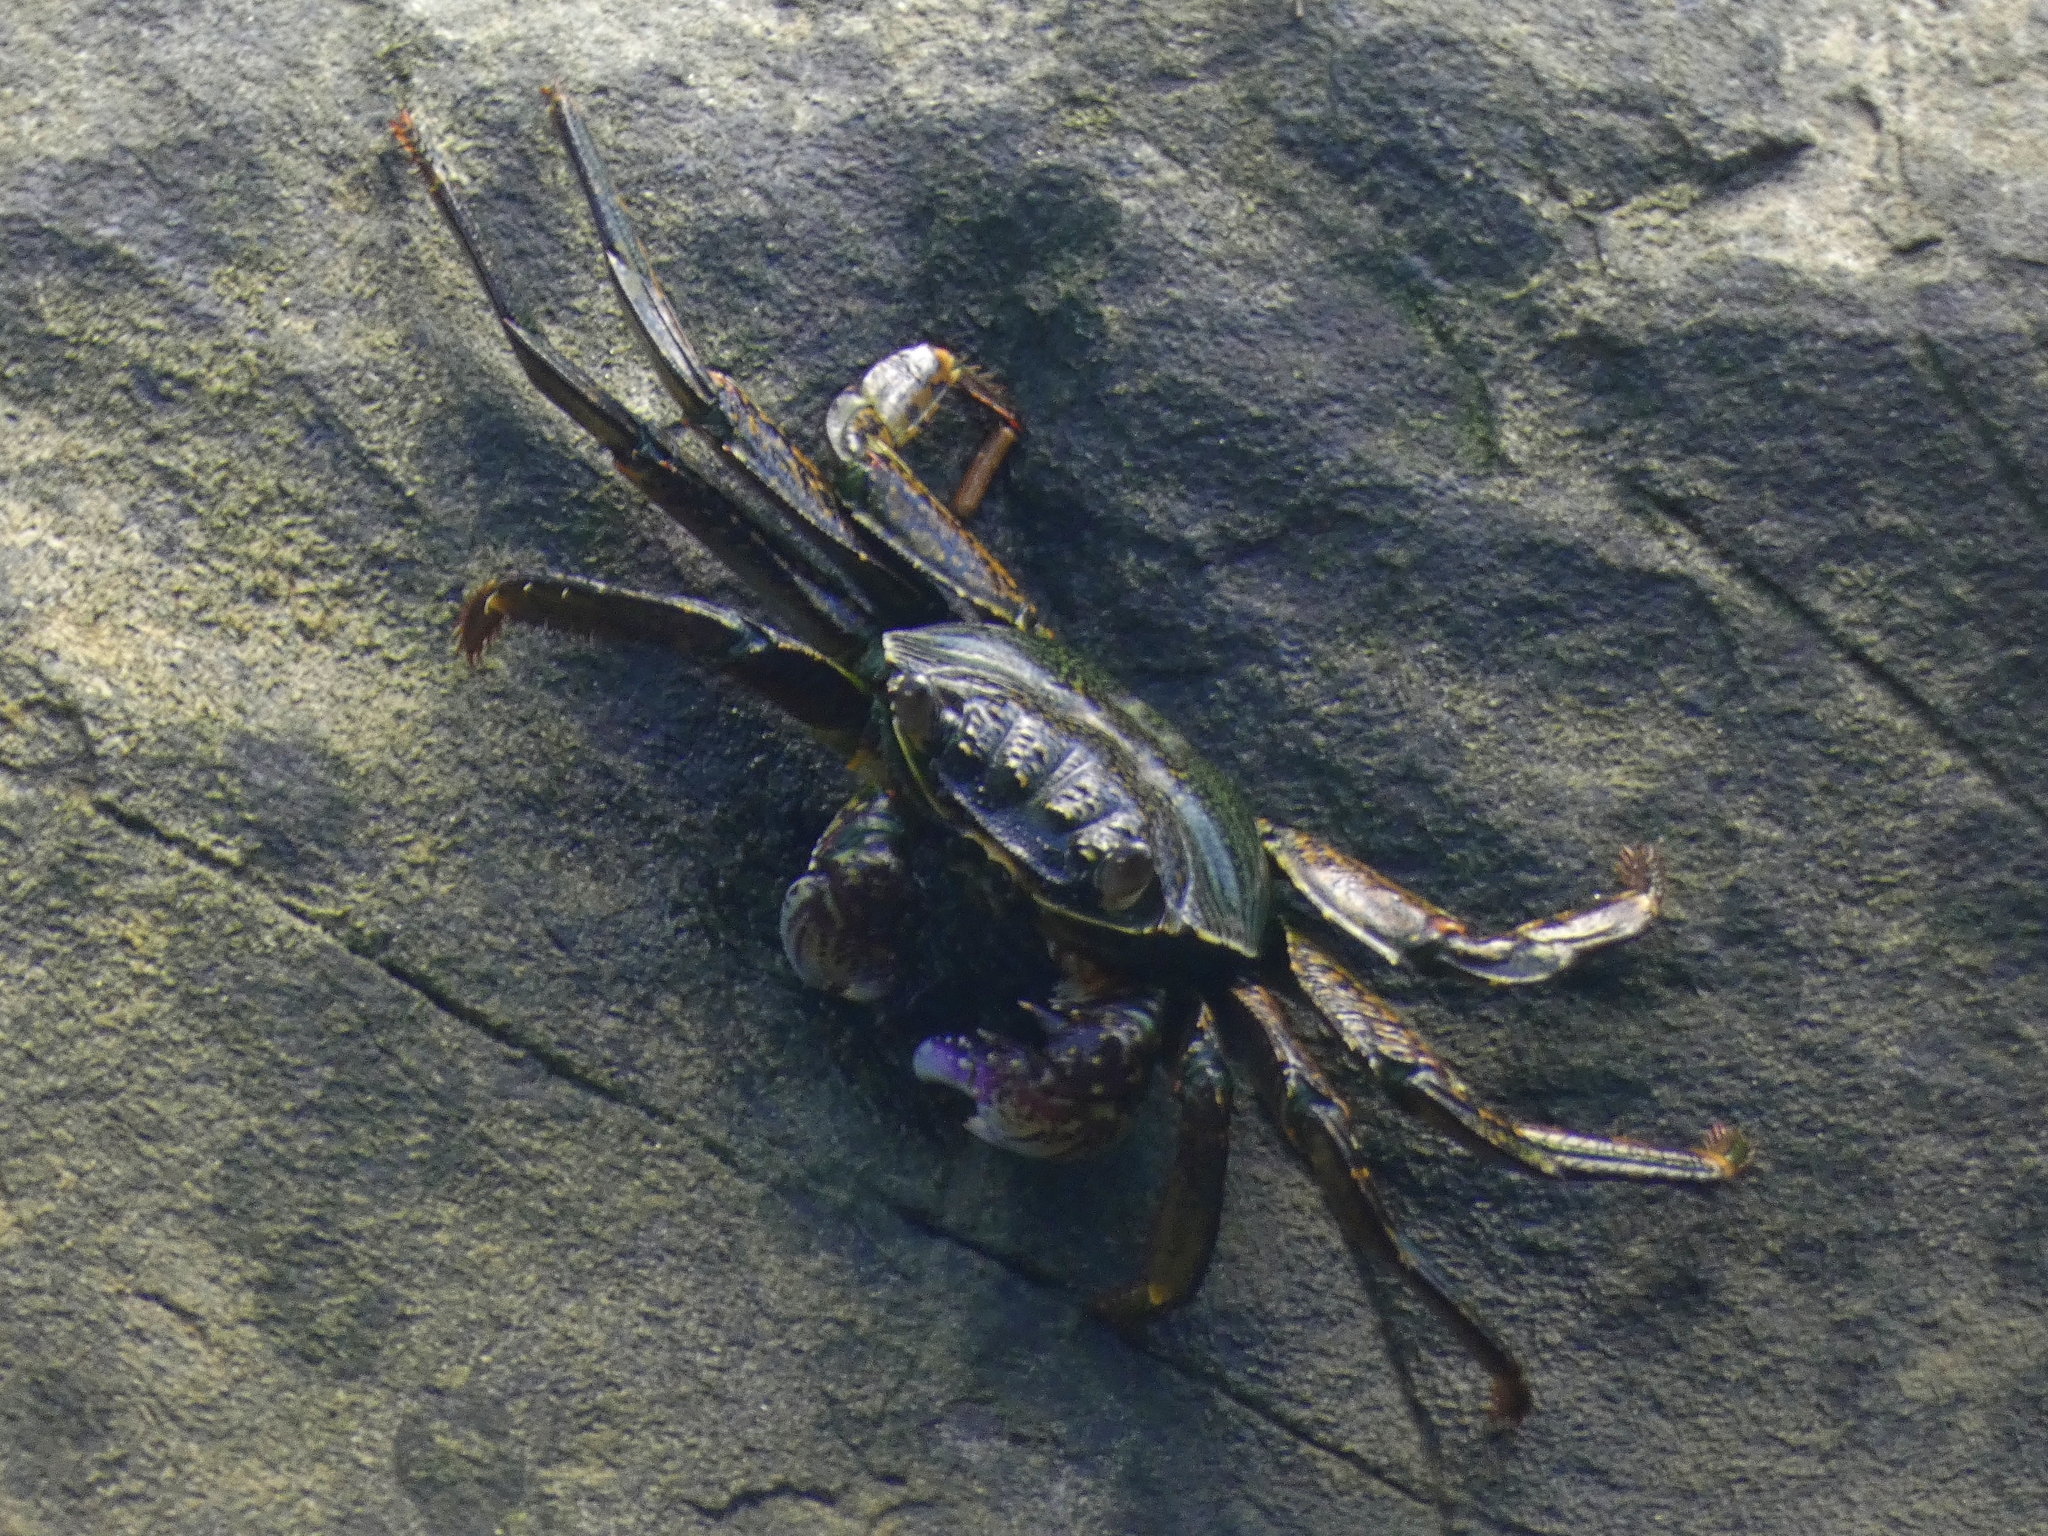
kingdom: Animalia
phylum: Arthropoda
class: Malacostraca
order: Decapoda
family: Grapsidae
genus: Grapsus
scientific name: Grapsus albolineatus
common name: Mottled lightfoot crab
